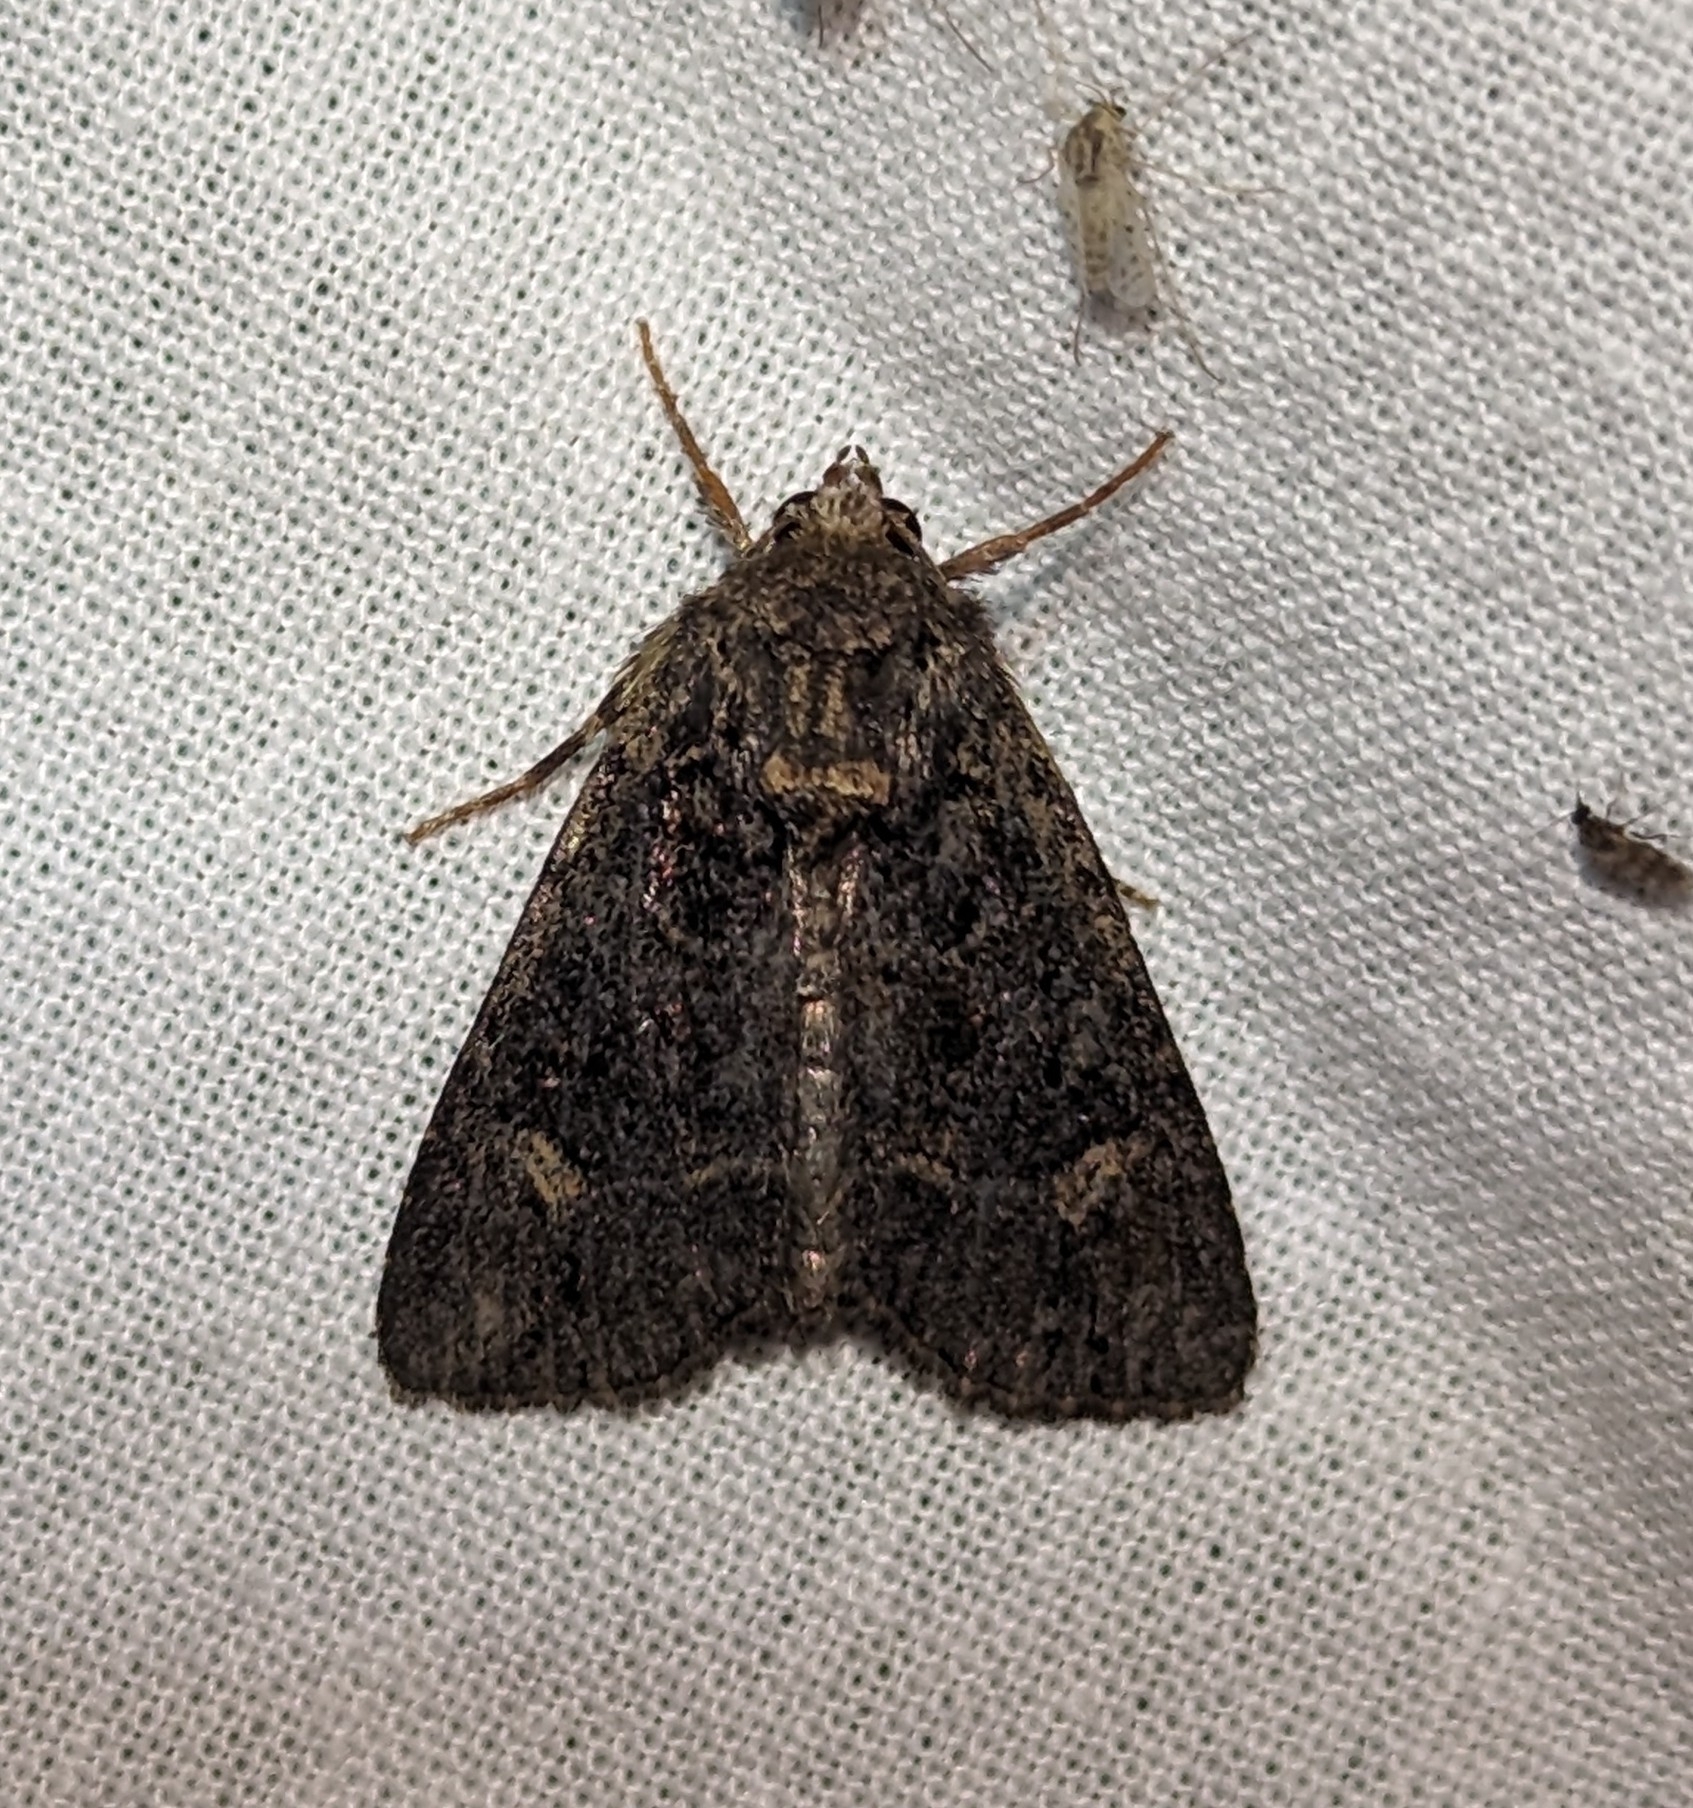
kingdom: Animalia
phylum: Arthropoda
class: Insecta
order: Lepidoptera
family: Noctuidae
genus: Aseptis
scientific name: Aseptis binotata
